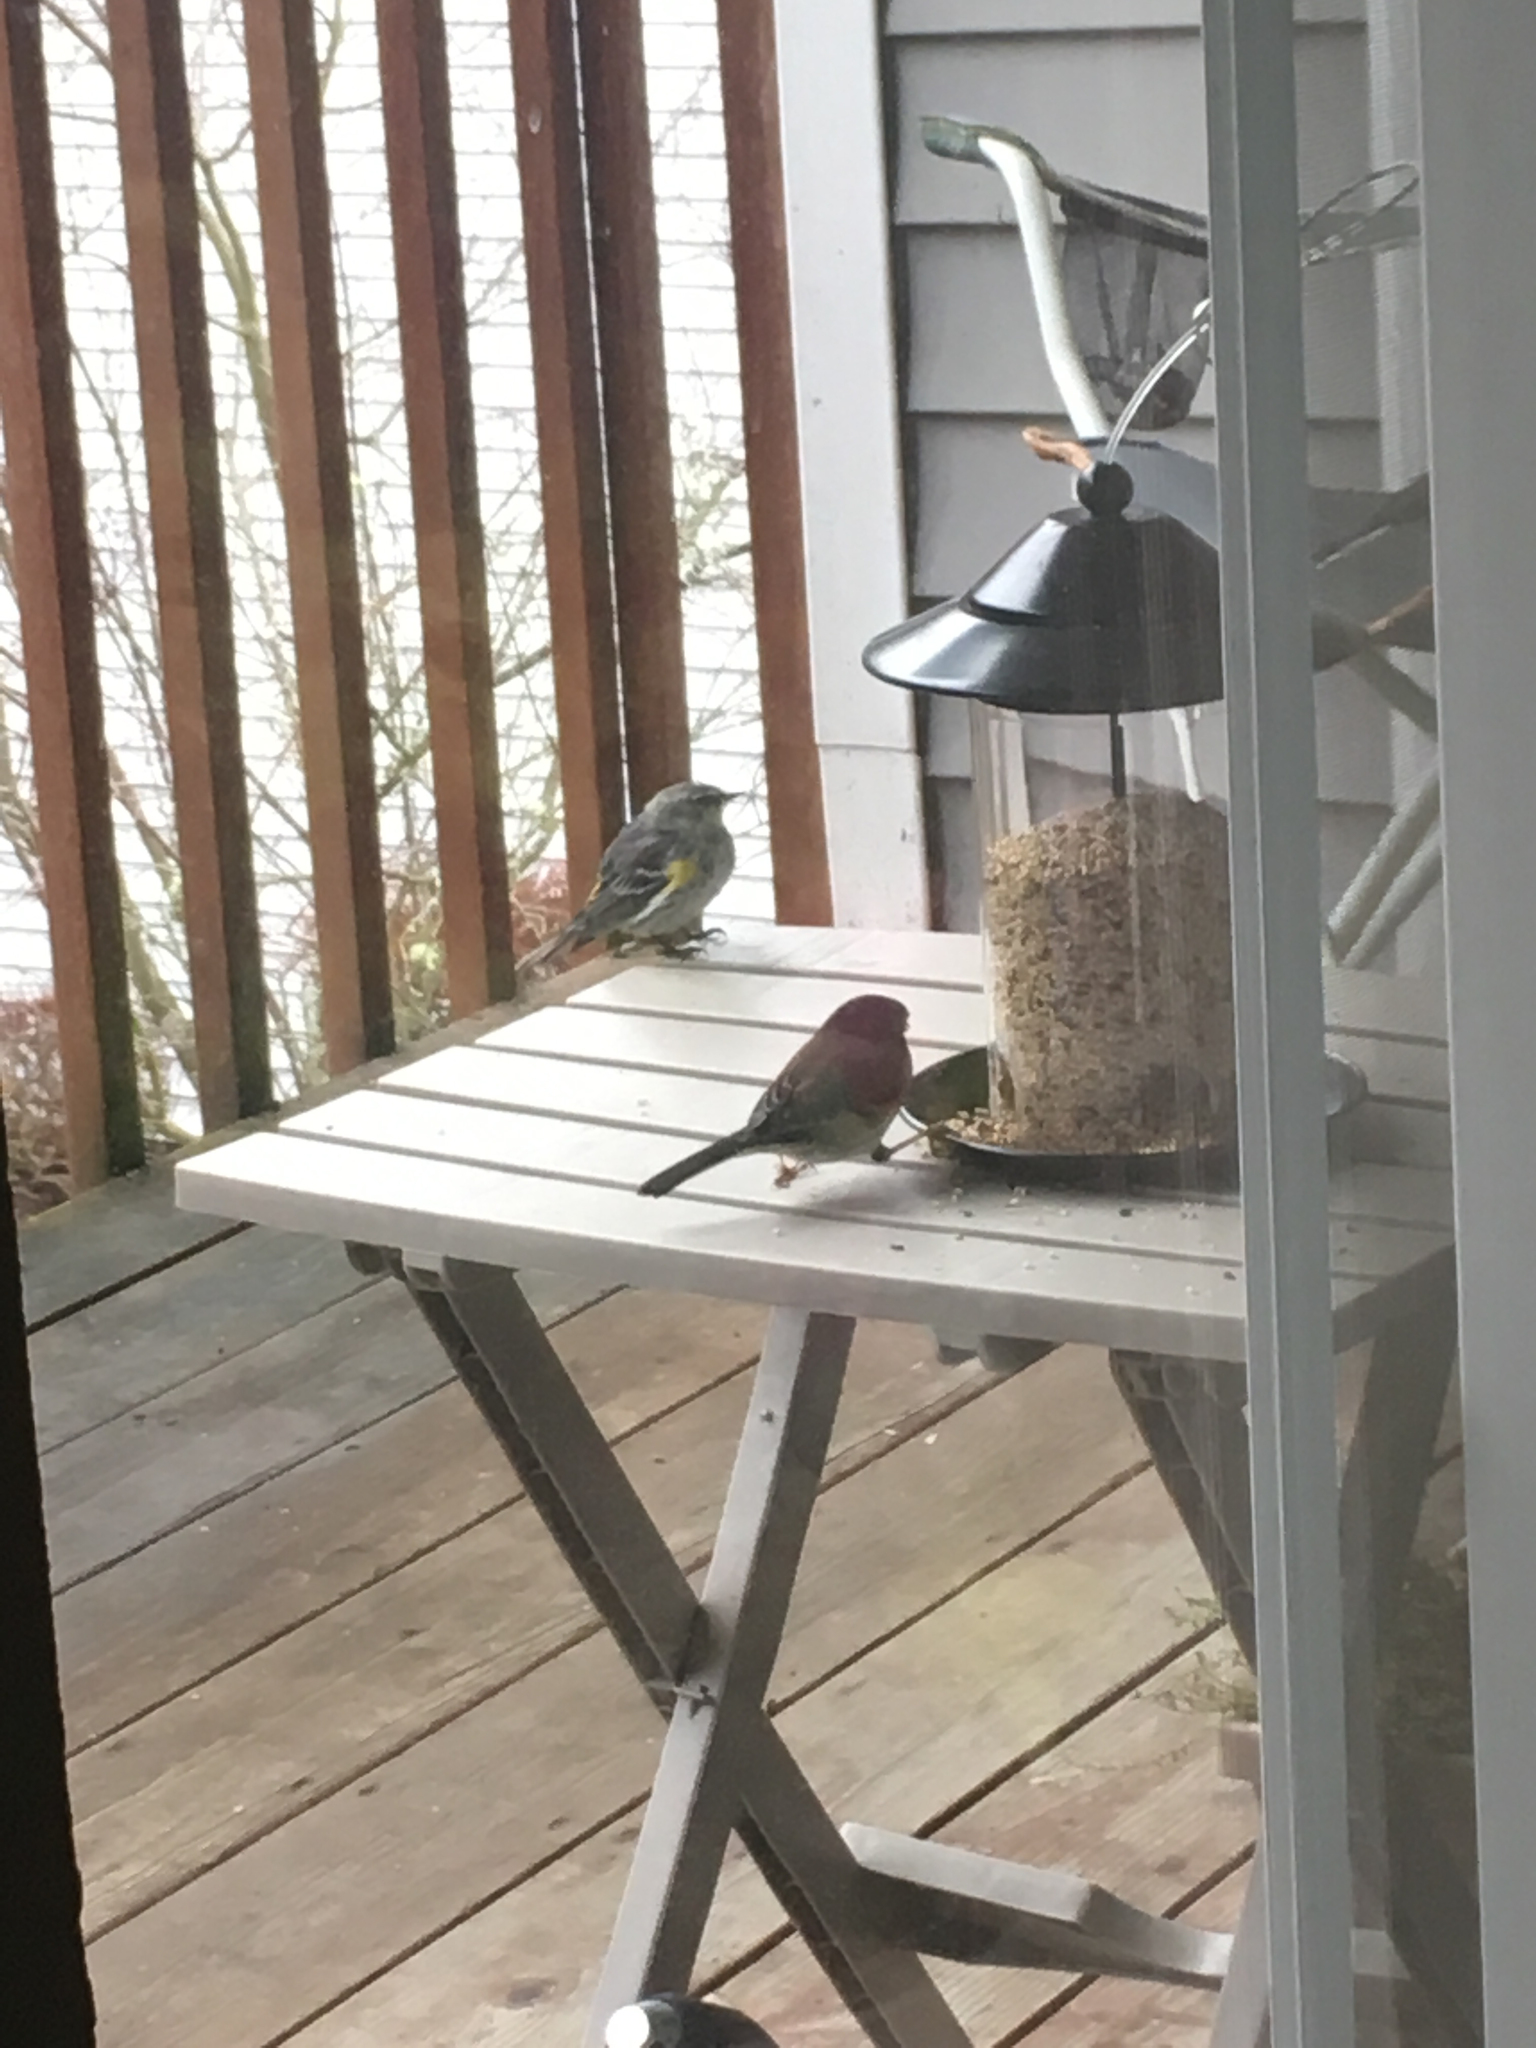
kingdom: Animalia
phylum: Chordata
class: Aves
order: Passeriformes
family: Passerellidae
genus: Junco
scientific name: Junco hyemalis
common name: Dark-eyed junco
